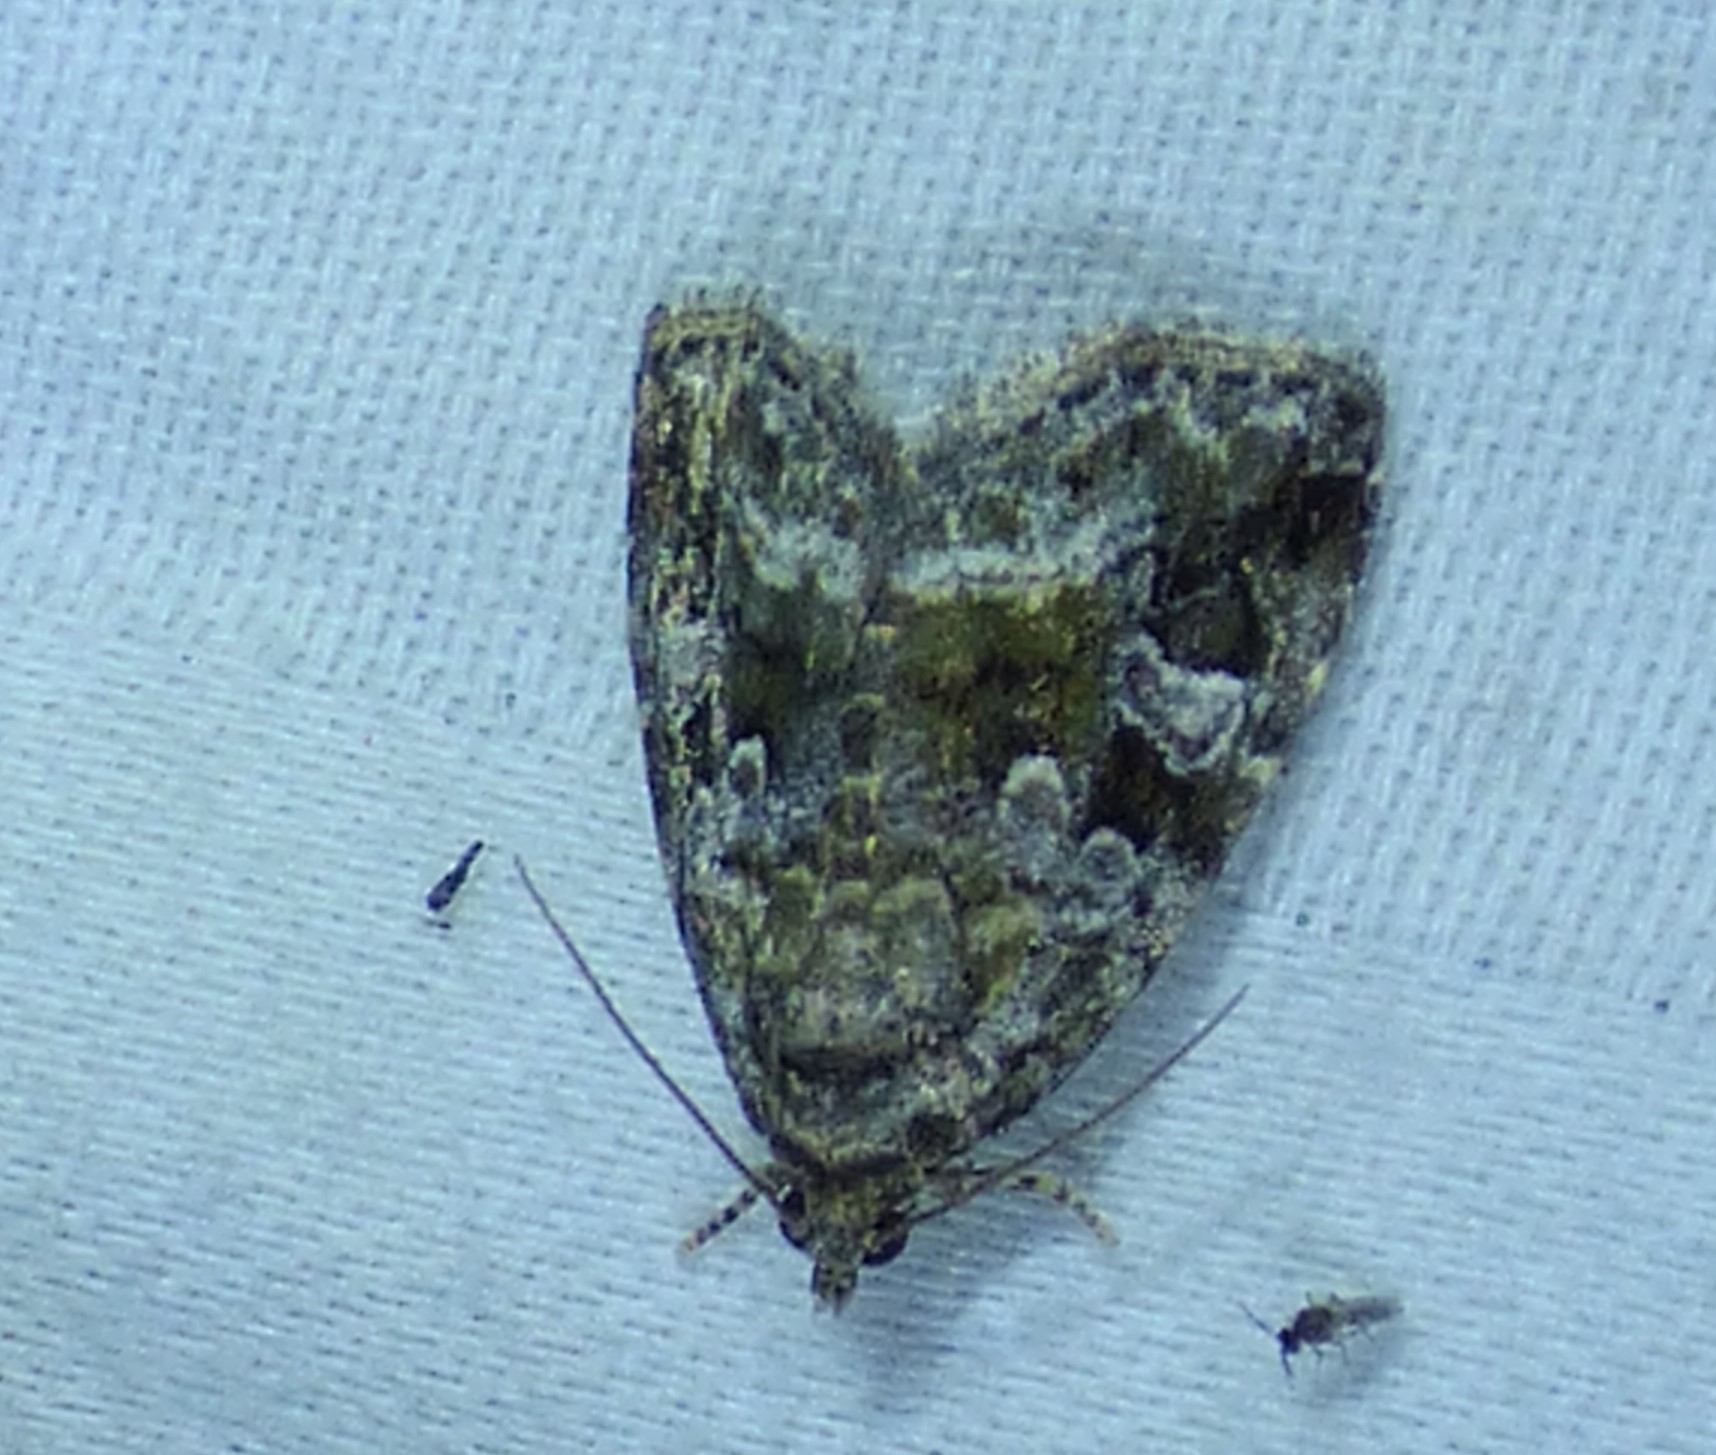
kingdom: Animalia
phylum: Arthropoda
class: Insecta
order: Lepidoptera
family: Noctuidae
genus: Protodeltote
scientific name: Protodeltote muscosula
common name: Large mossy glyph
